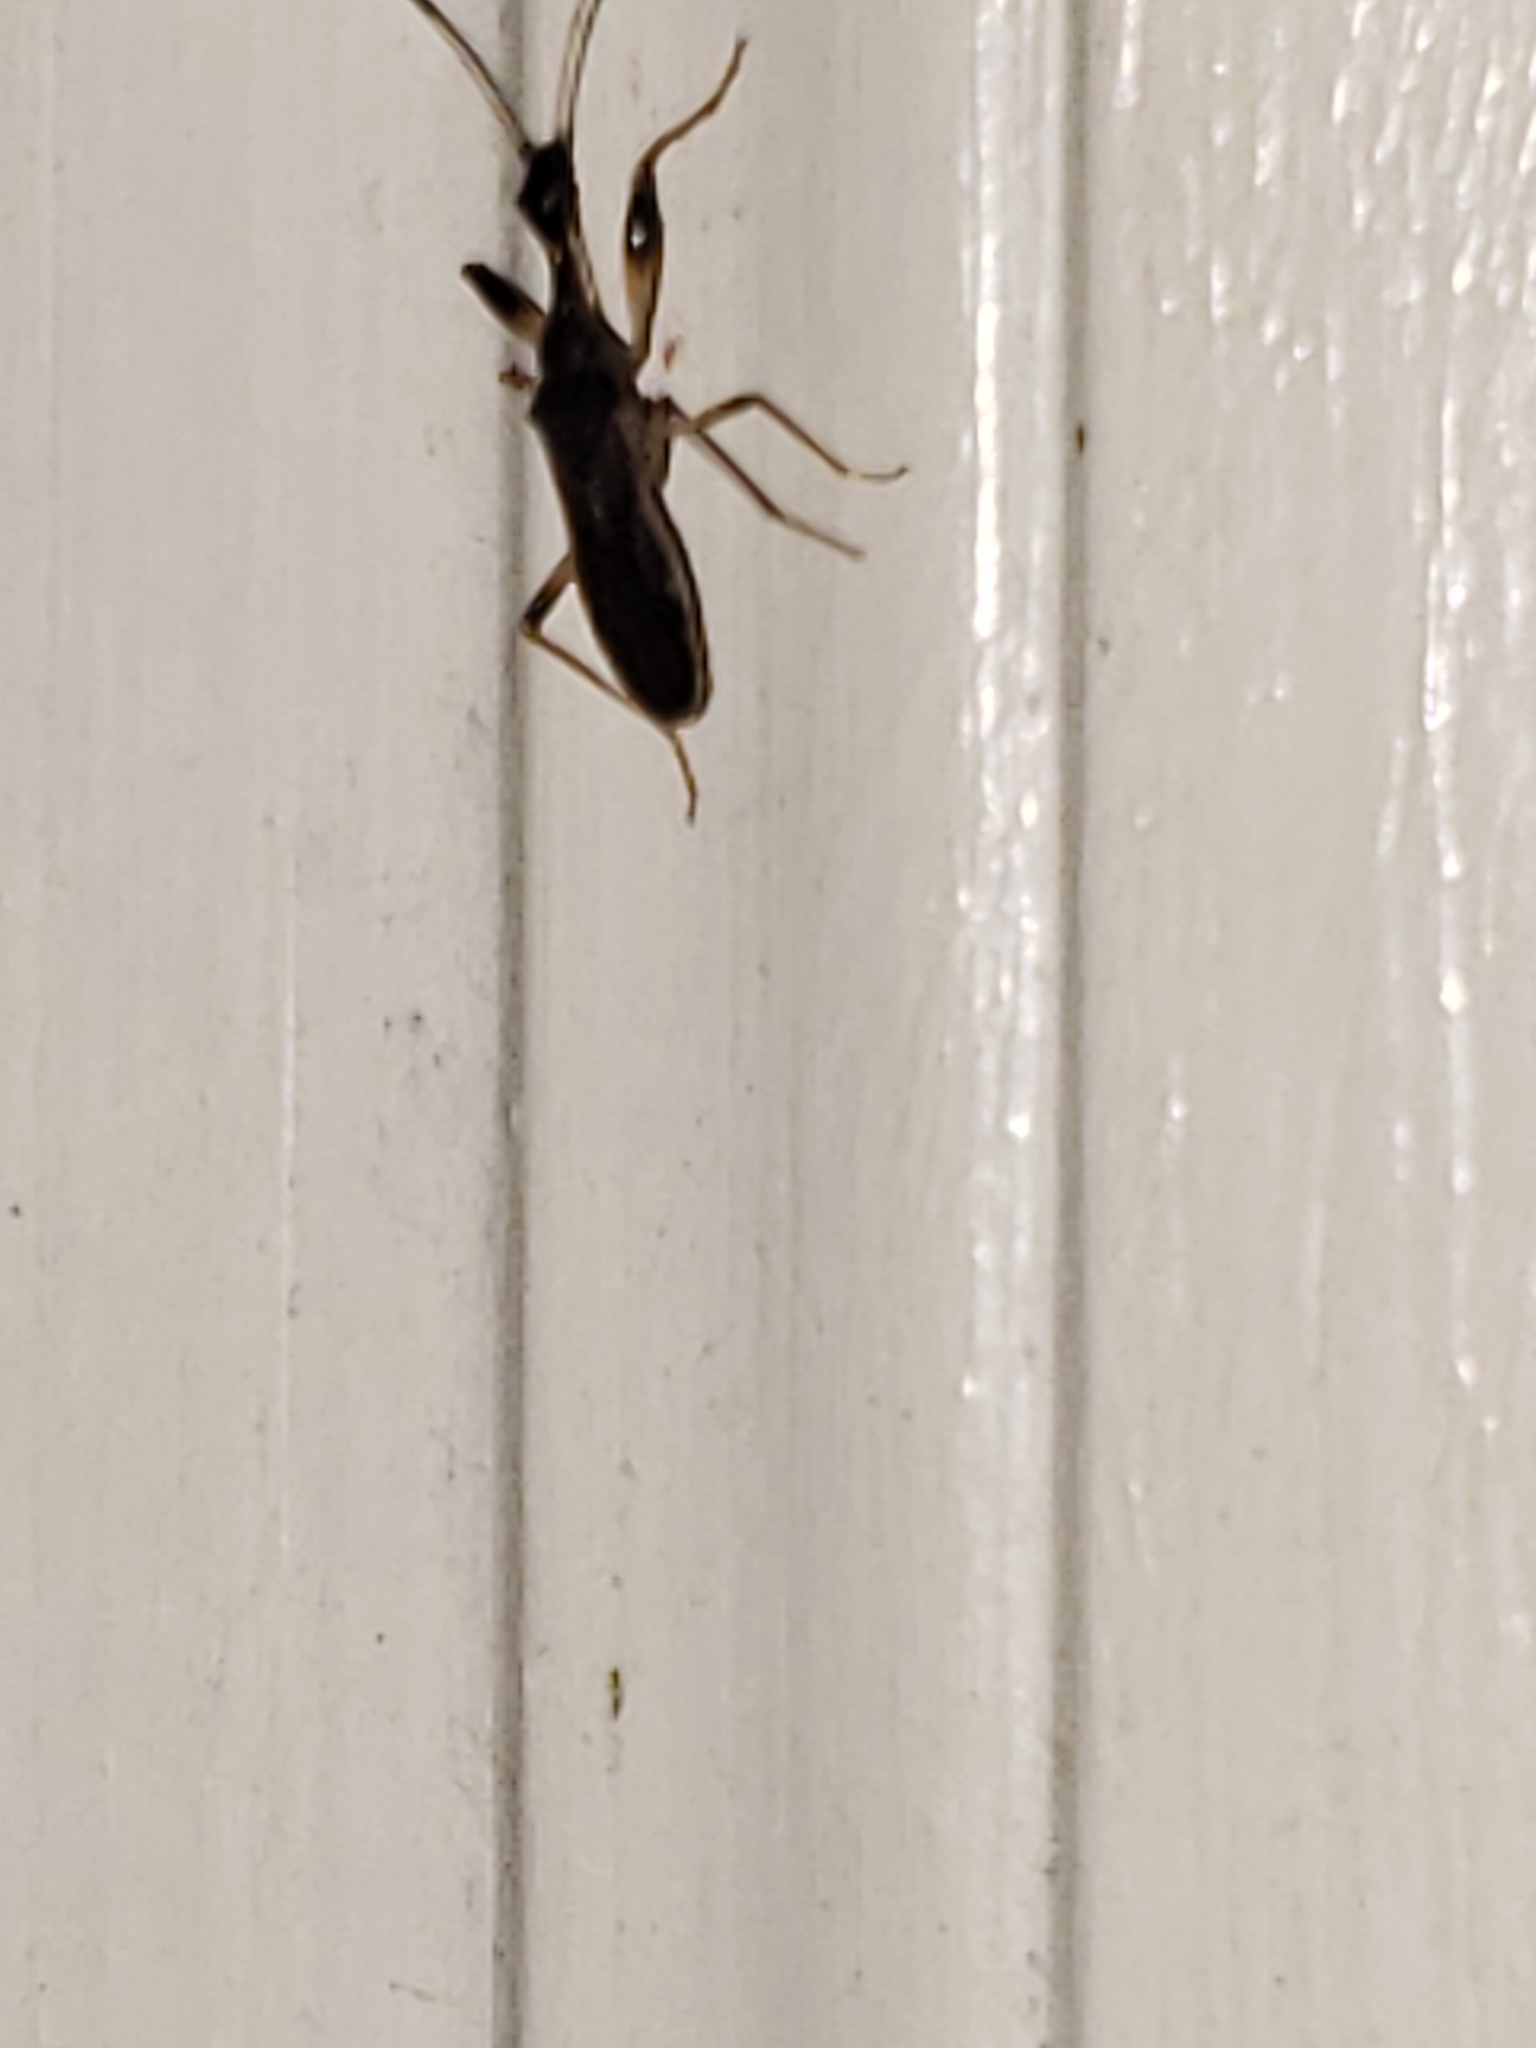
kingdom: Animalia
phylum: Arthropoda
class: Insecta
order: Hemiptera
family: Rhyparochromidae
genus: Myodocha
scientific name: Myodocha serripes
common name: Long-necked seed bug
